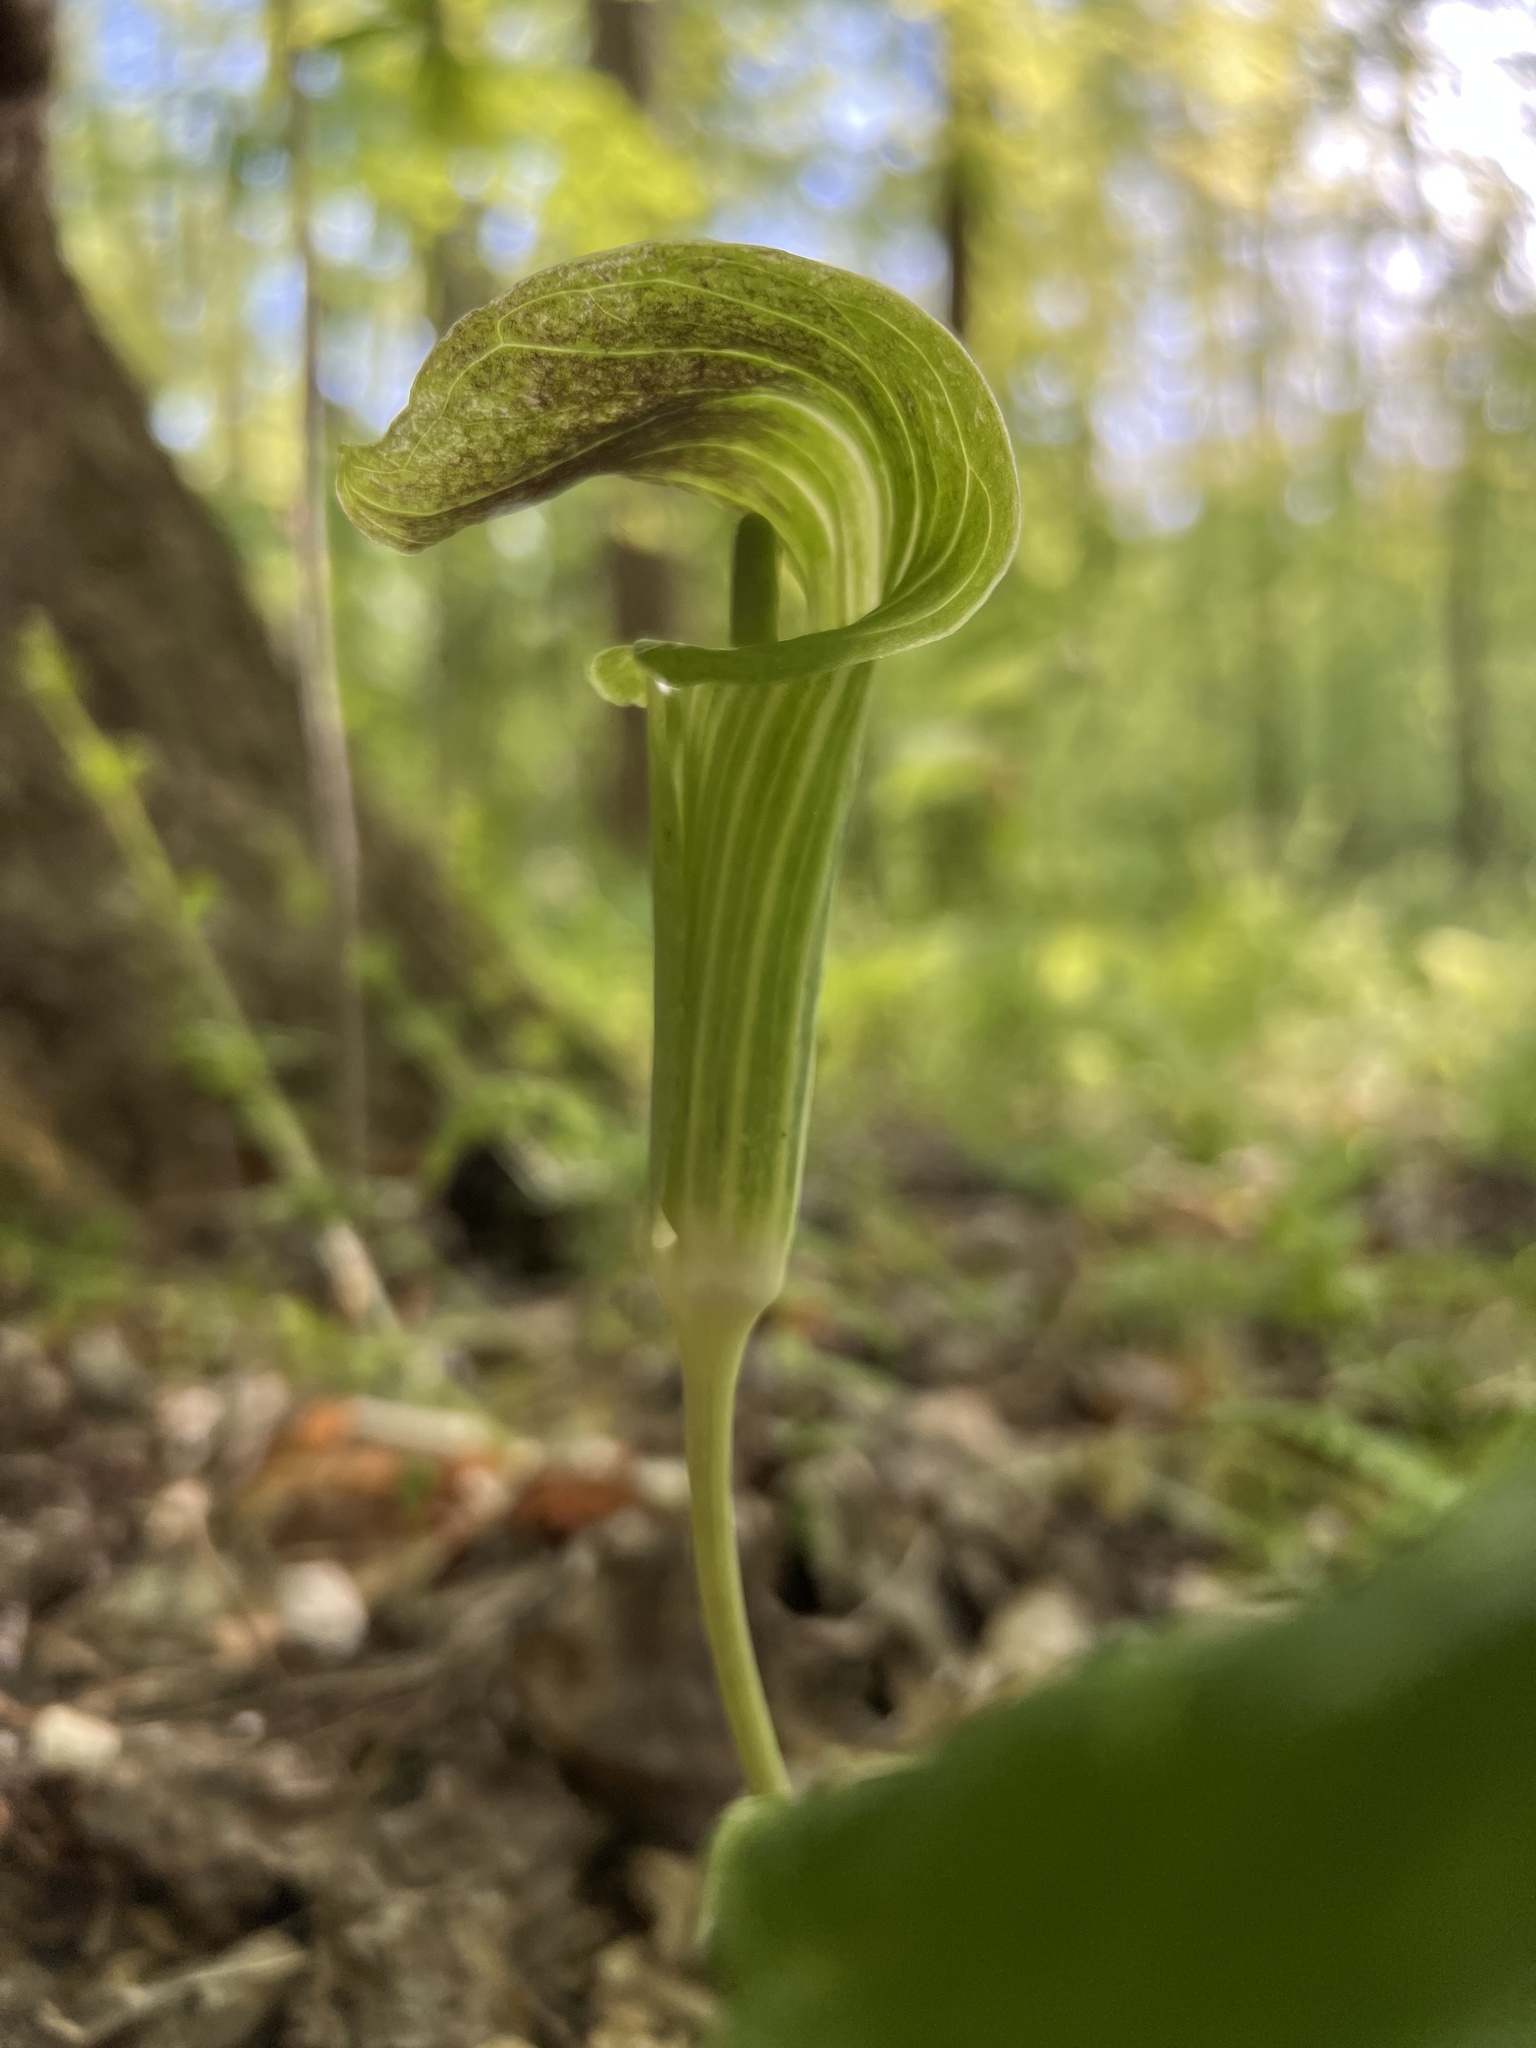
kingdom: Plantae
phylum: Tracheophyta
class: Liliopsida
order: Alismatales
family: Araceae
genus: Arisaema
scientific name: Arisaema triphyllum
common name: Jack-in-the-pulpit
